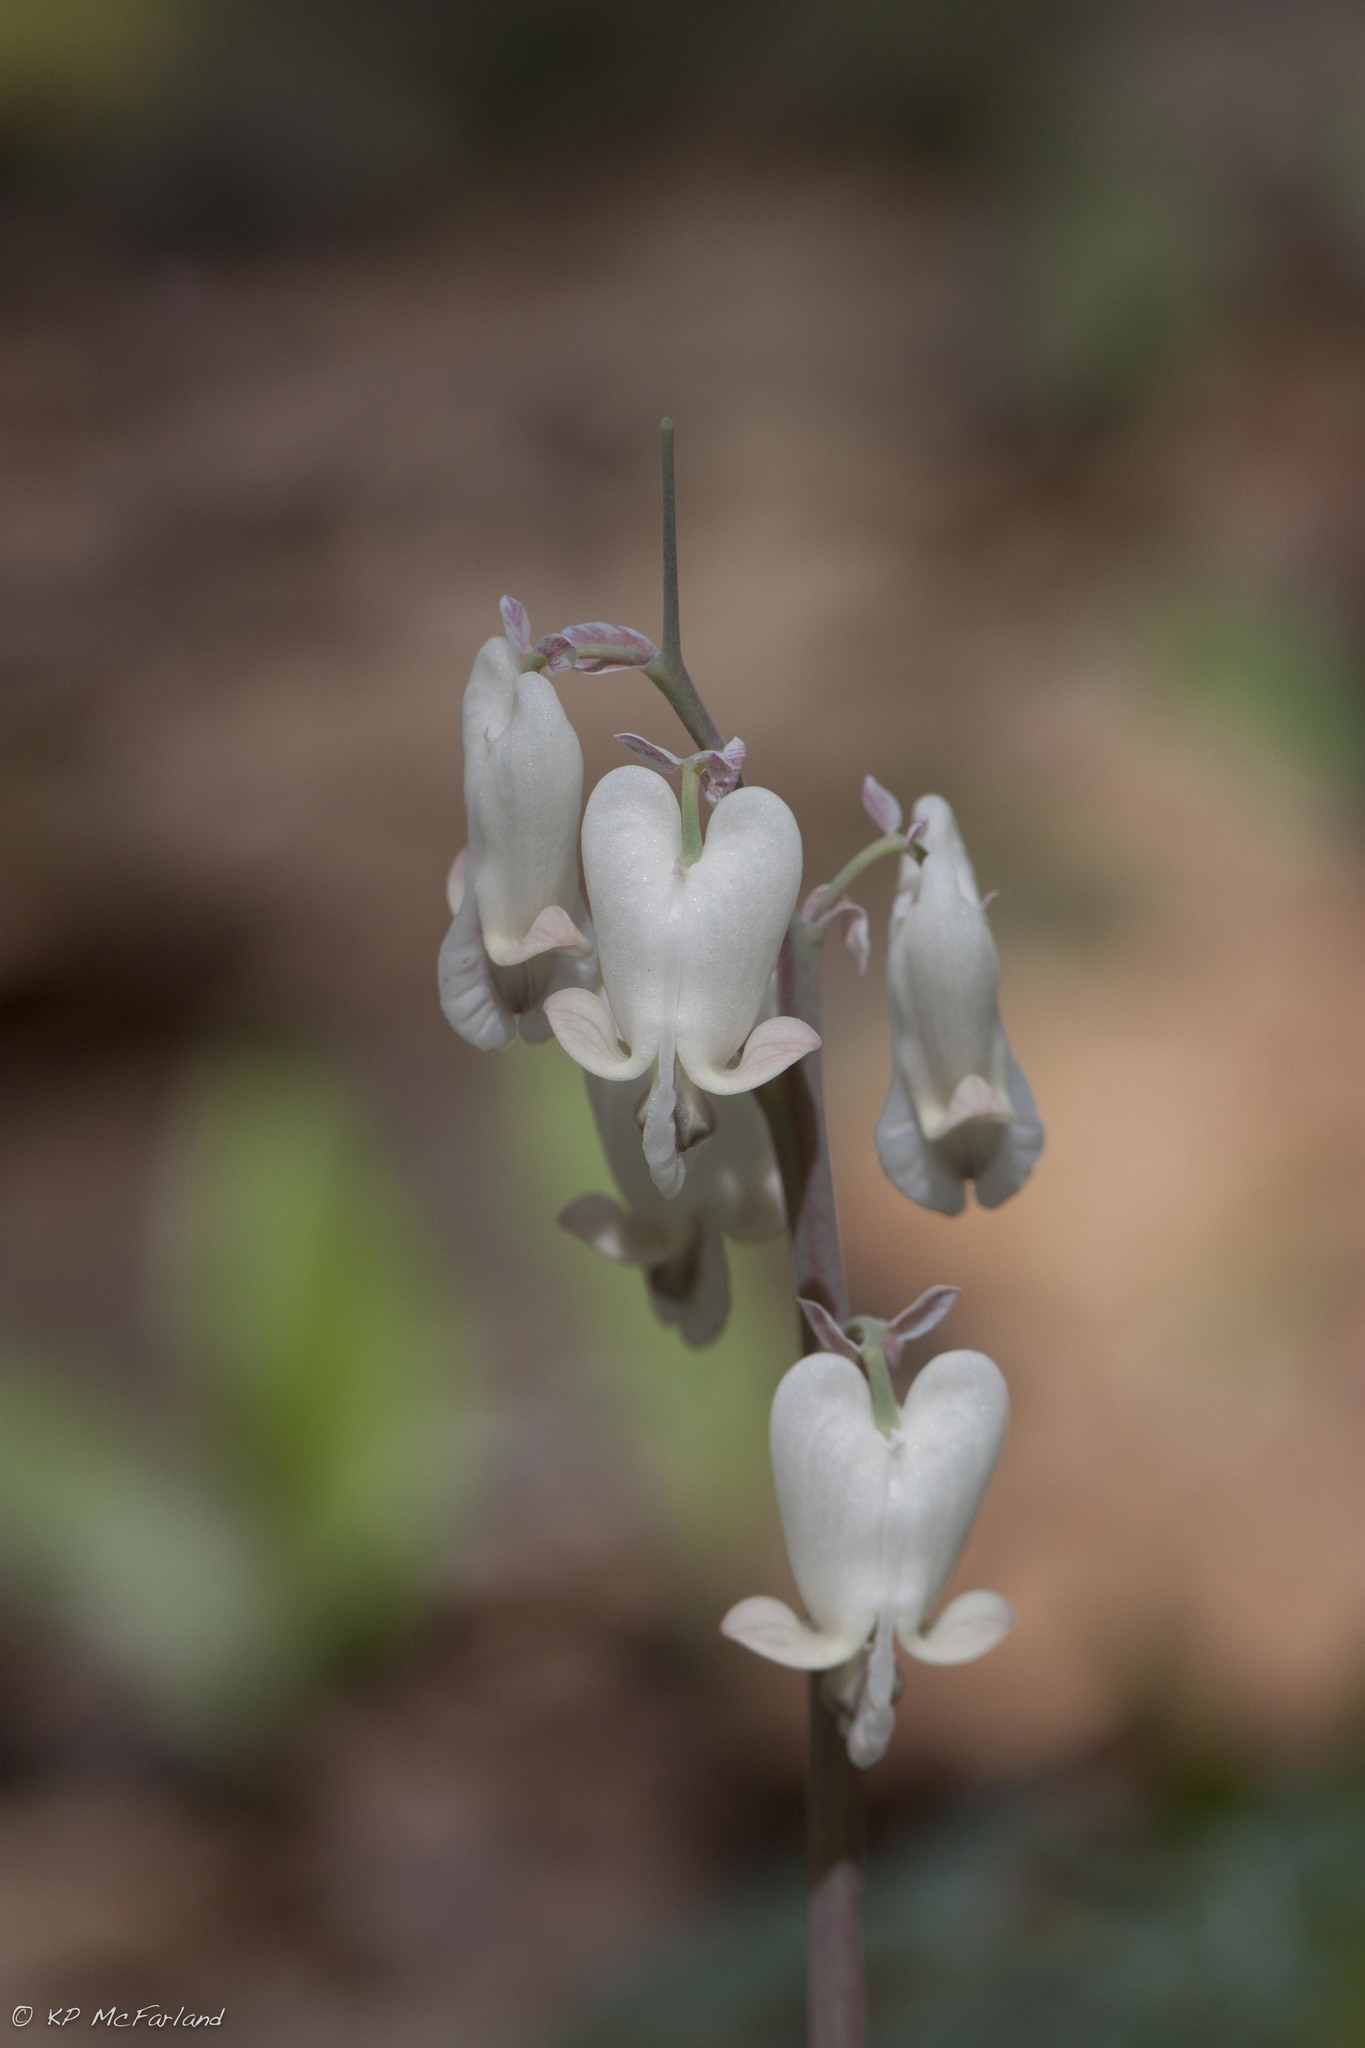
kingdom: Plantae
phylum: Tracheophyta
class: Magnoliopsida
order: Ranunculales
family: Papaveraceae
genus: Dicentra
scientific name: Dicentra canadensis
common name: Squirrel-corn
